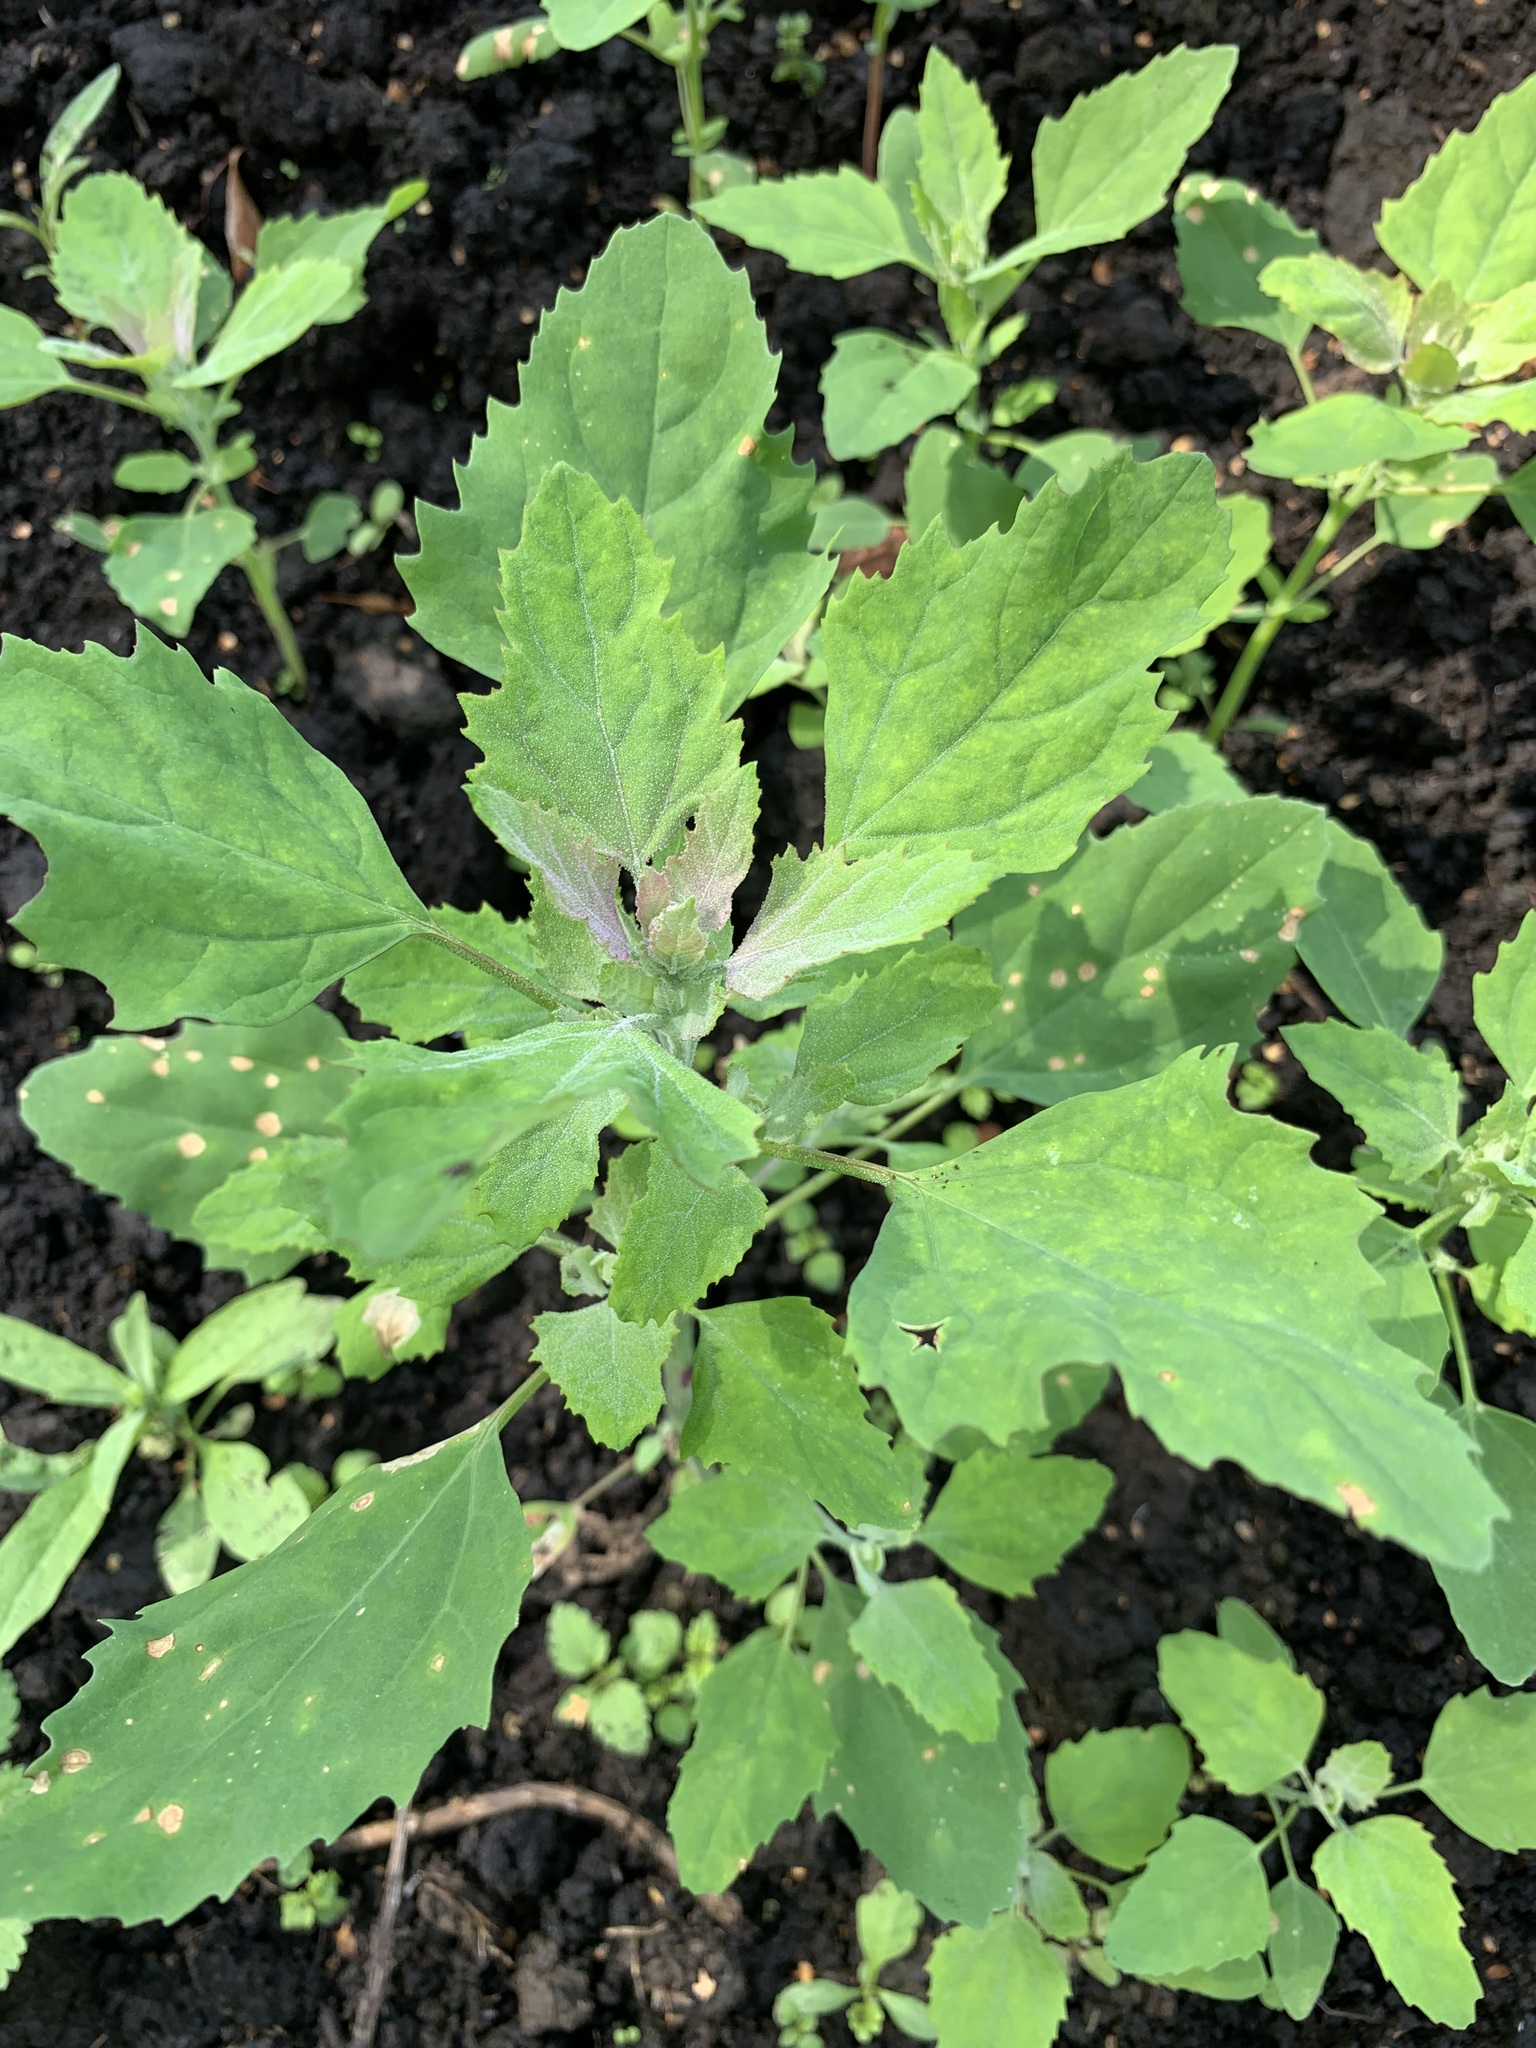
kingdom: Plantae
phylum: Tracheophyta
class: Magnoliopsida
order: Caryophyllales
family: Amaranthaceae
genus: Chenopodium
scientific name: Chenopodium album
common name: Fat-hen
